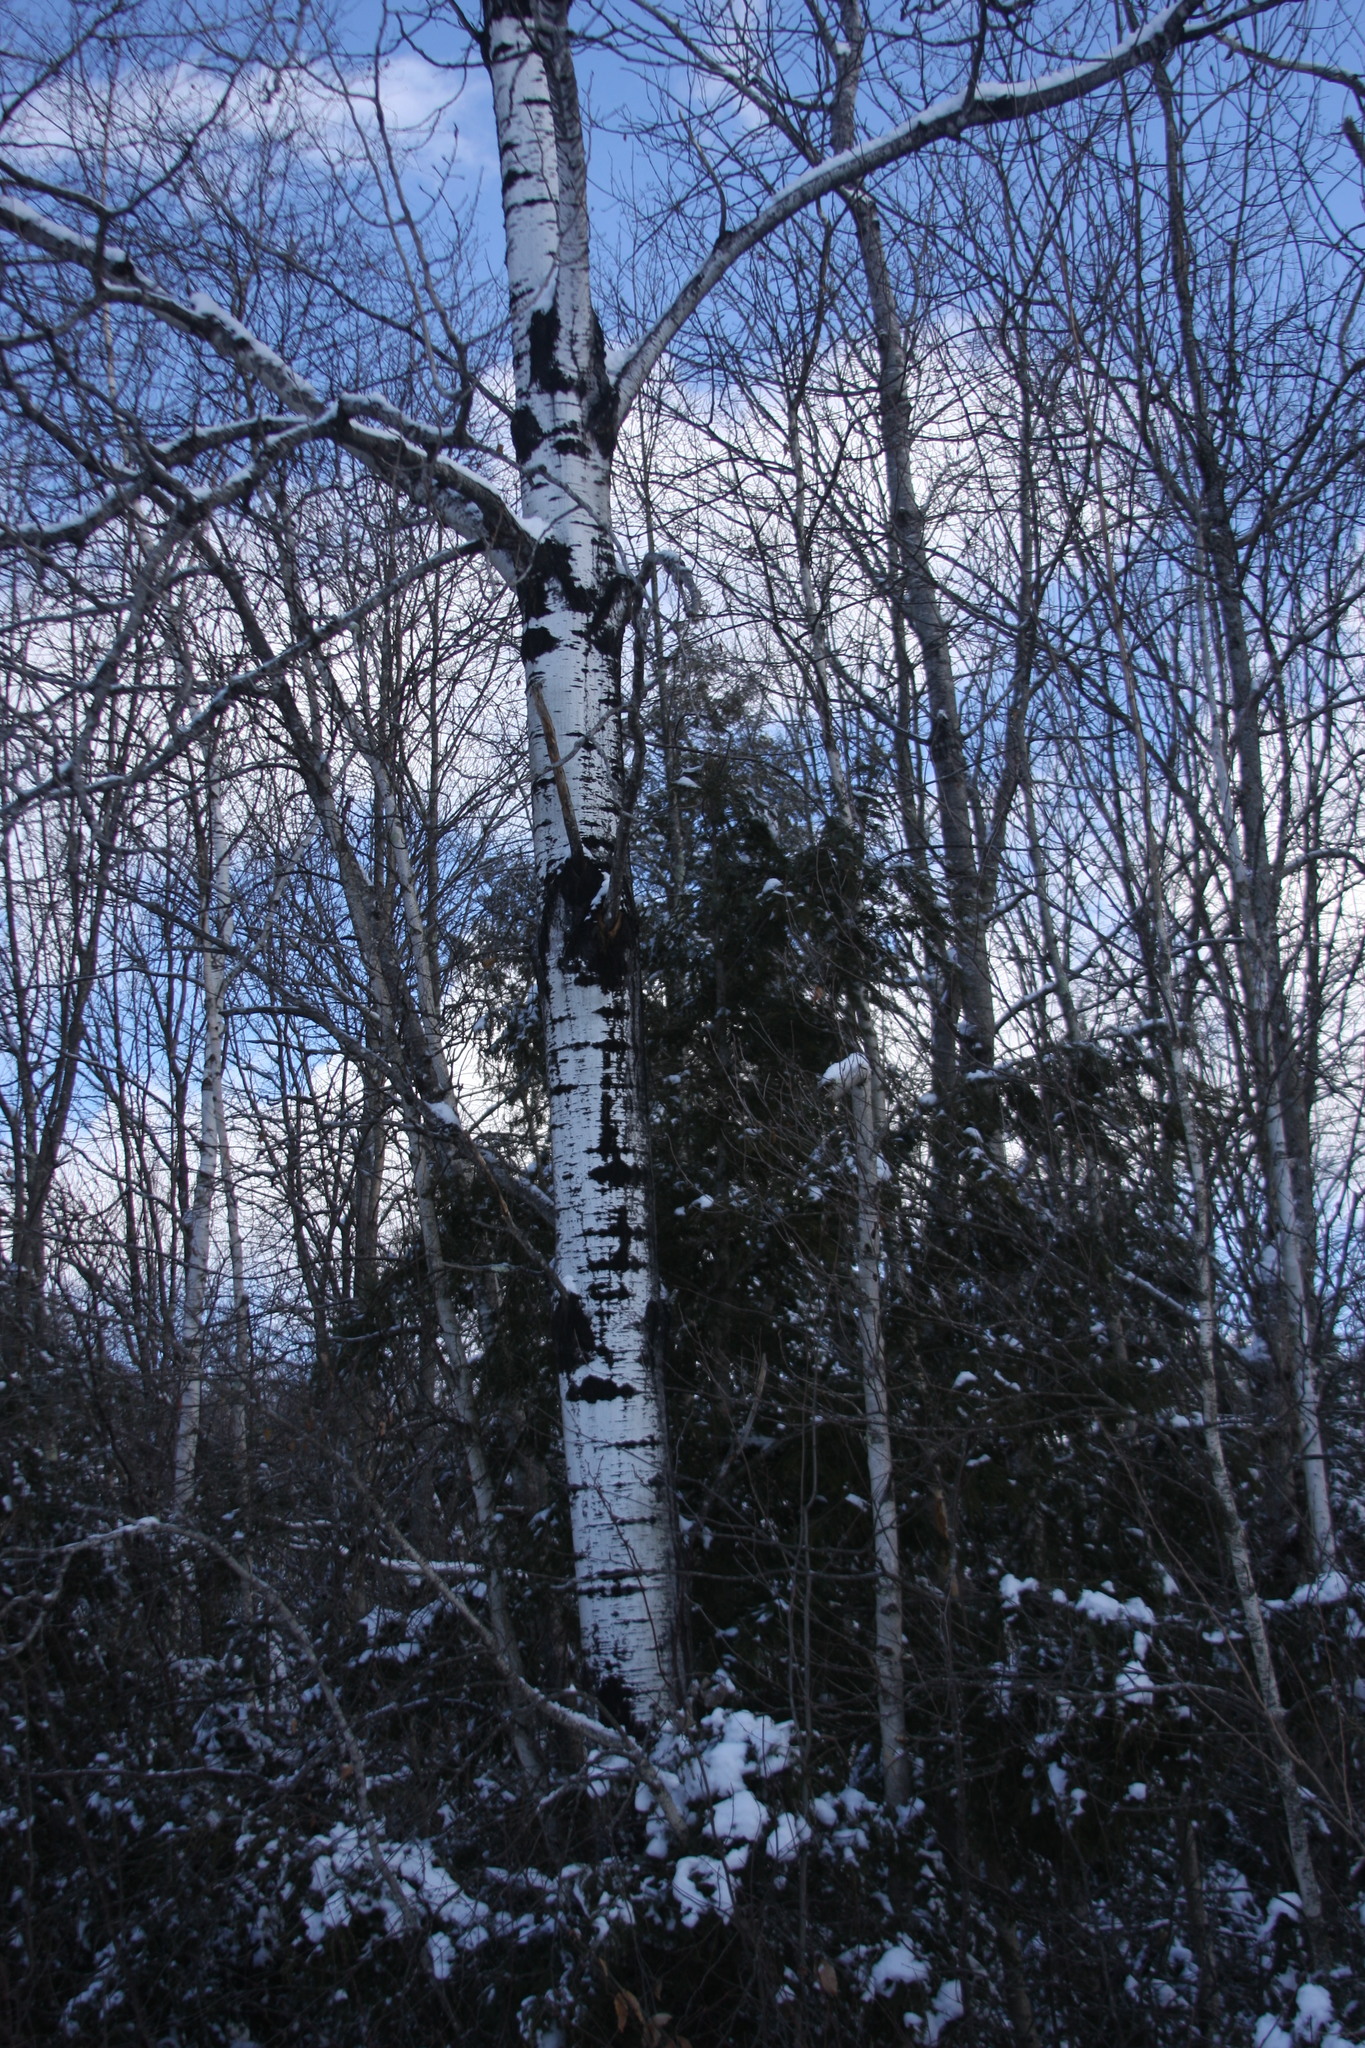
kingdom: Plantae
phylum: Tracheophyta
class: Magnoliopsida
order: Malpighiales
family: Salicaceae
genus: Populus
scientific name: Populus tremuloides
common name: Quaking aspen
